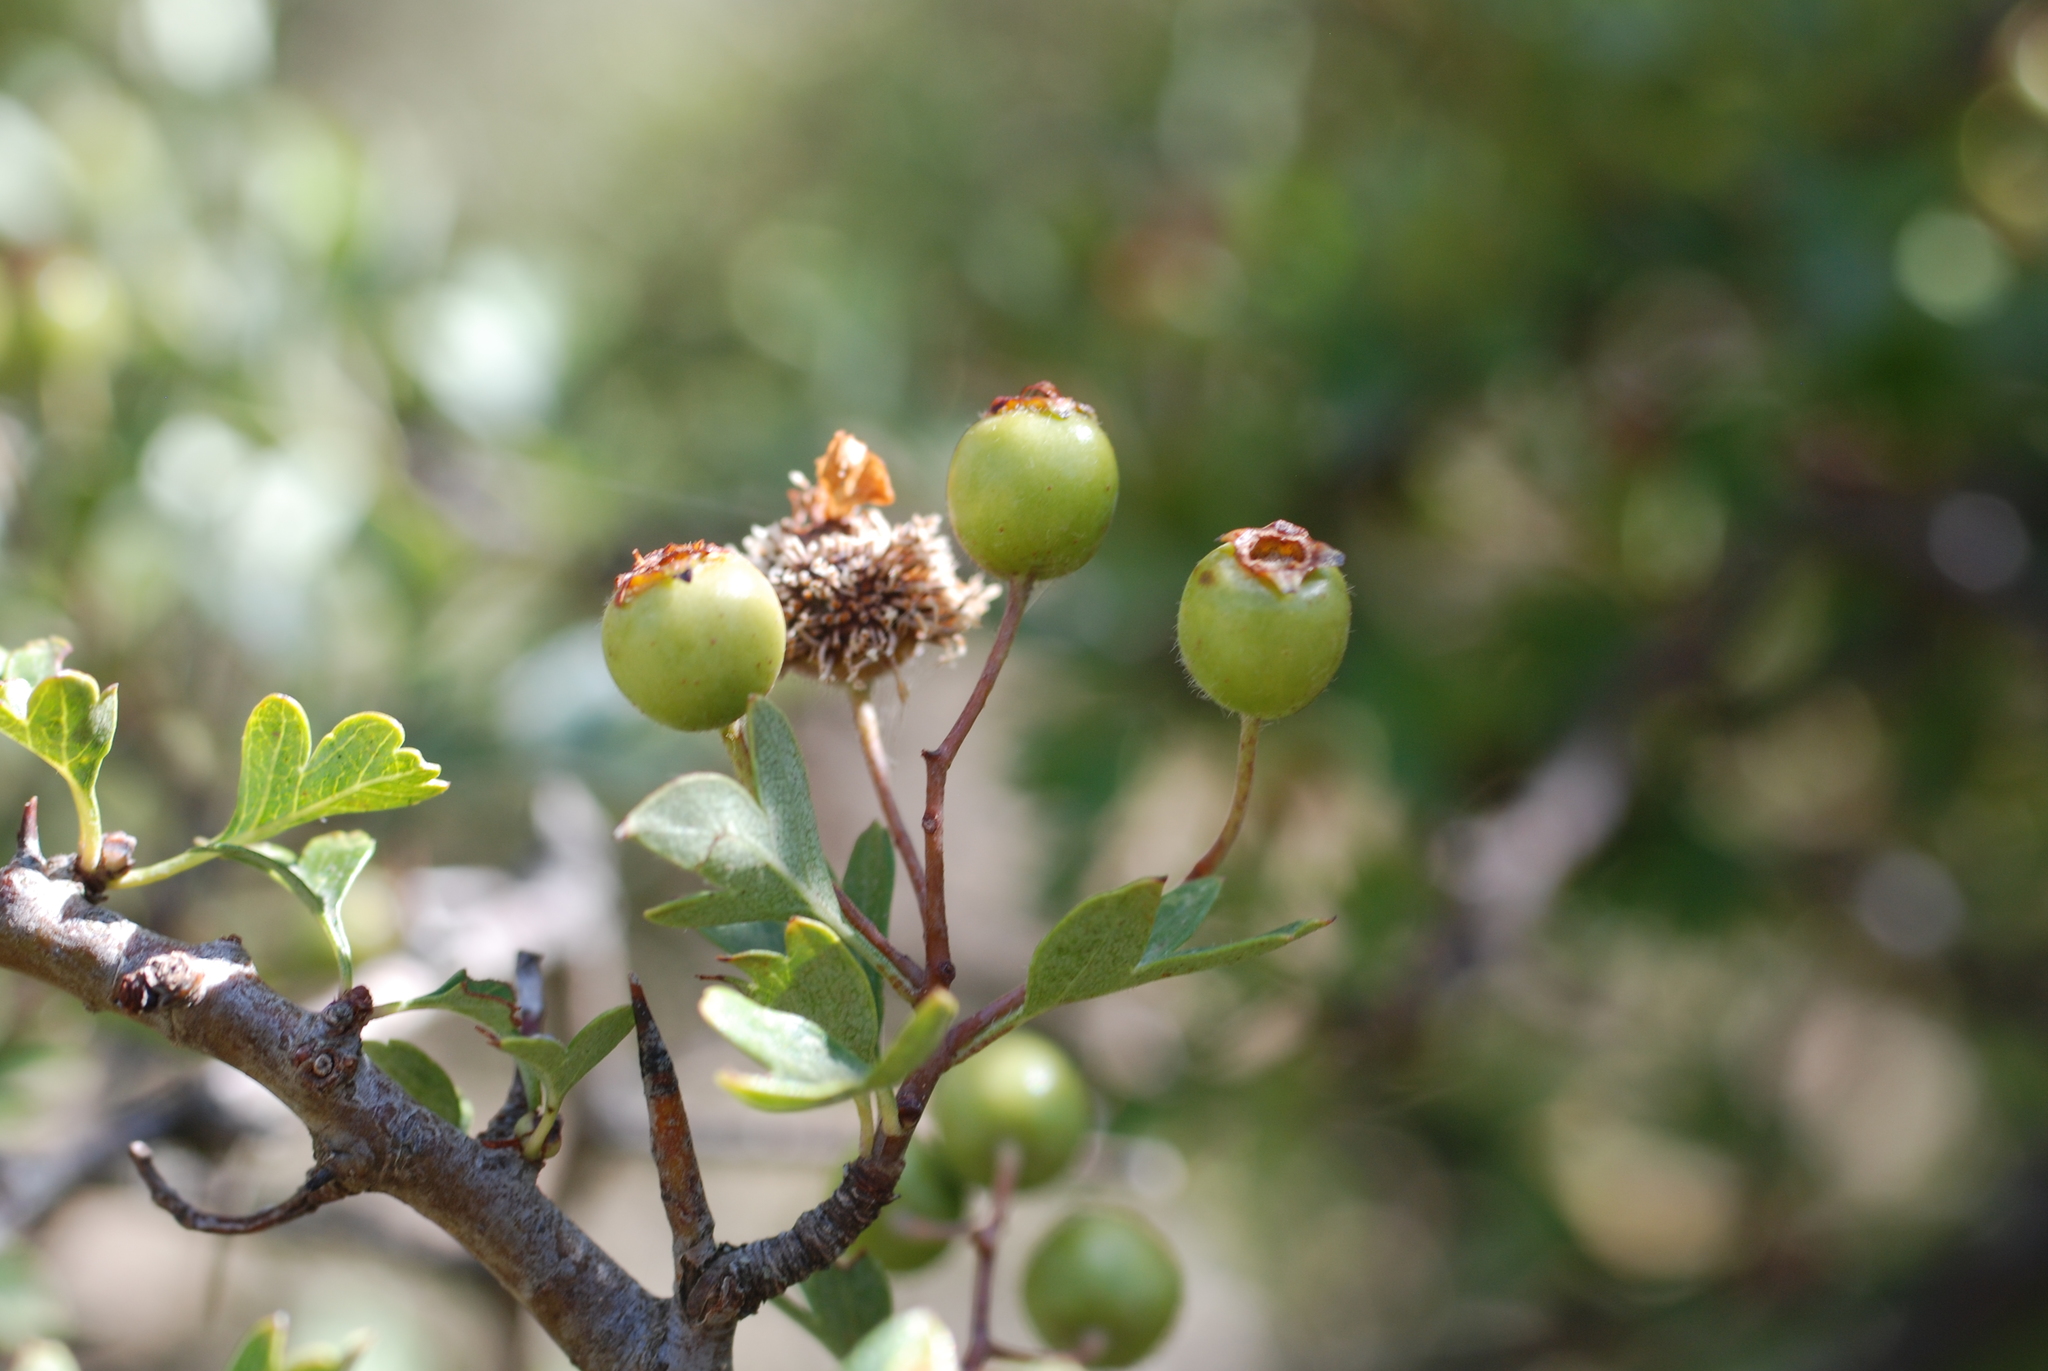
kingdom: Plantae
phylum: Tracheophyta
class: Magnoliopsida
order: Rosales
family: Rosaceae
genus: Crataegus
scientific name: Crataegus monogyna
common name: Hawthorn
